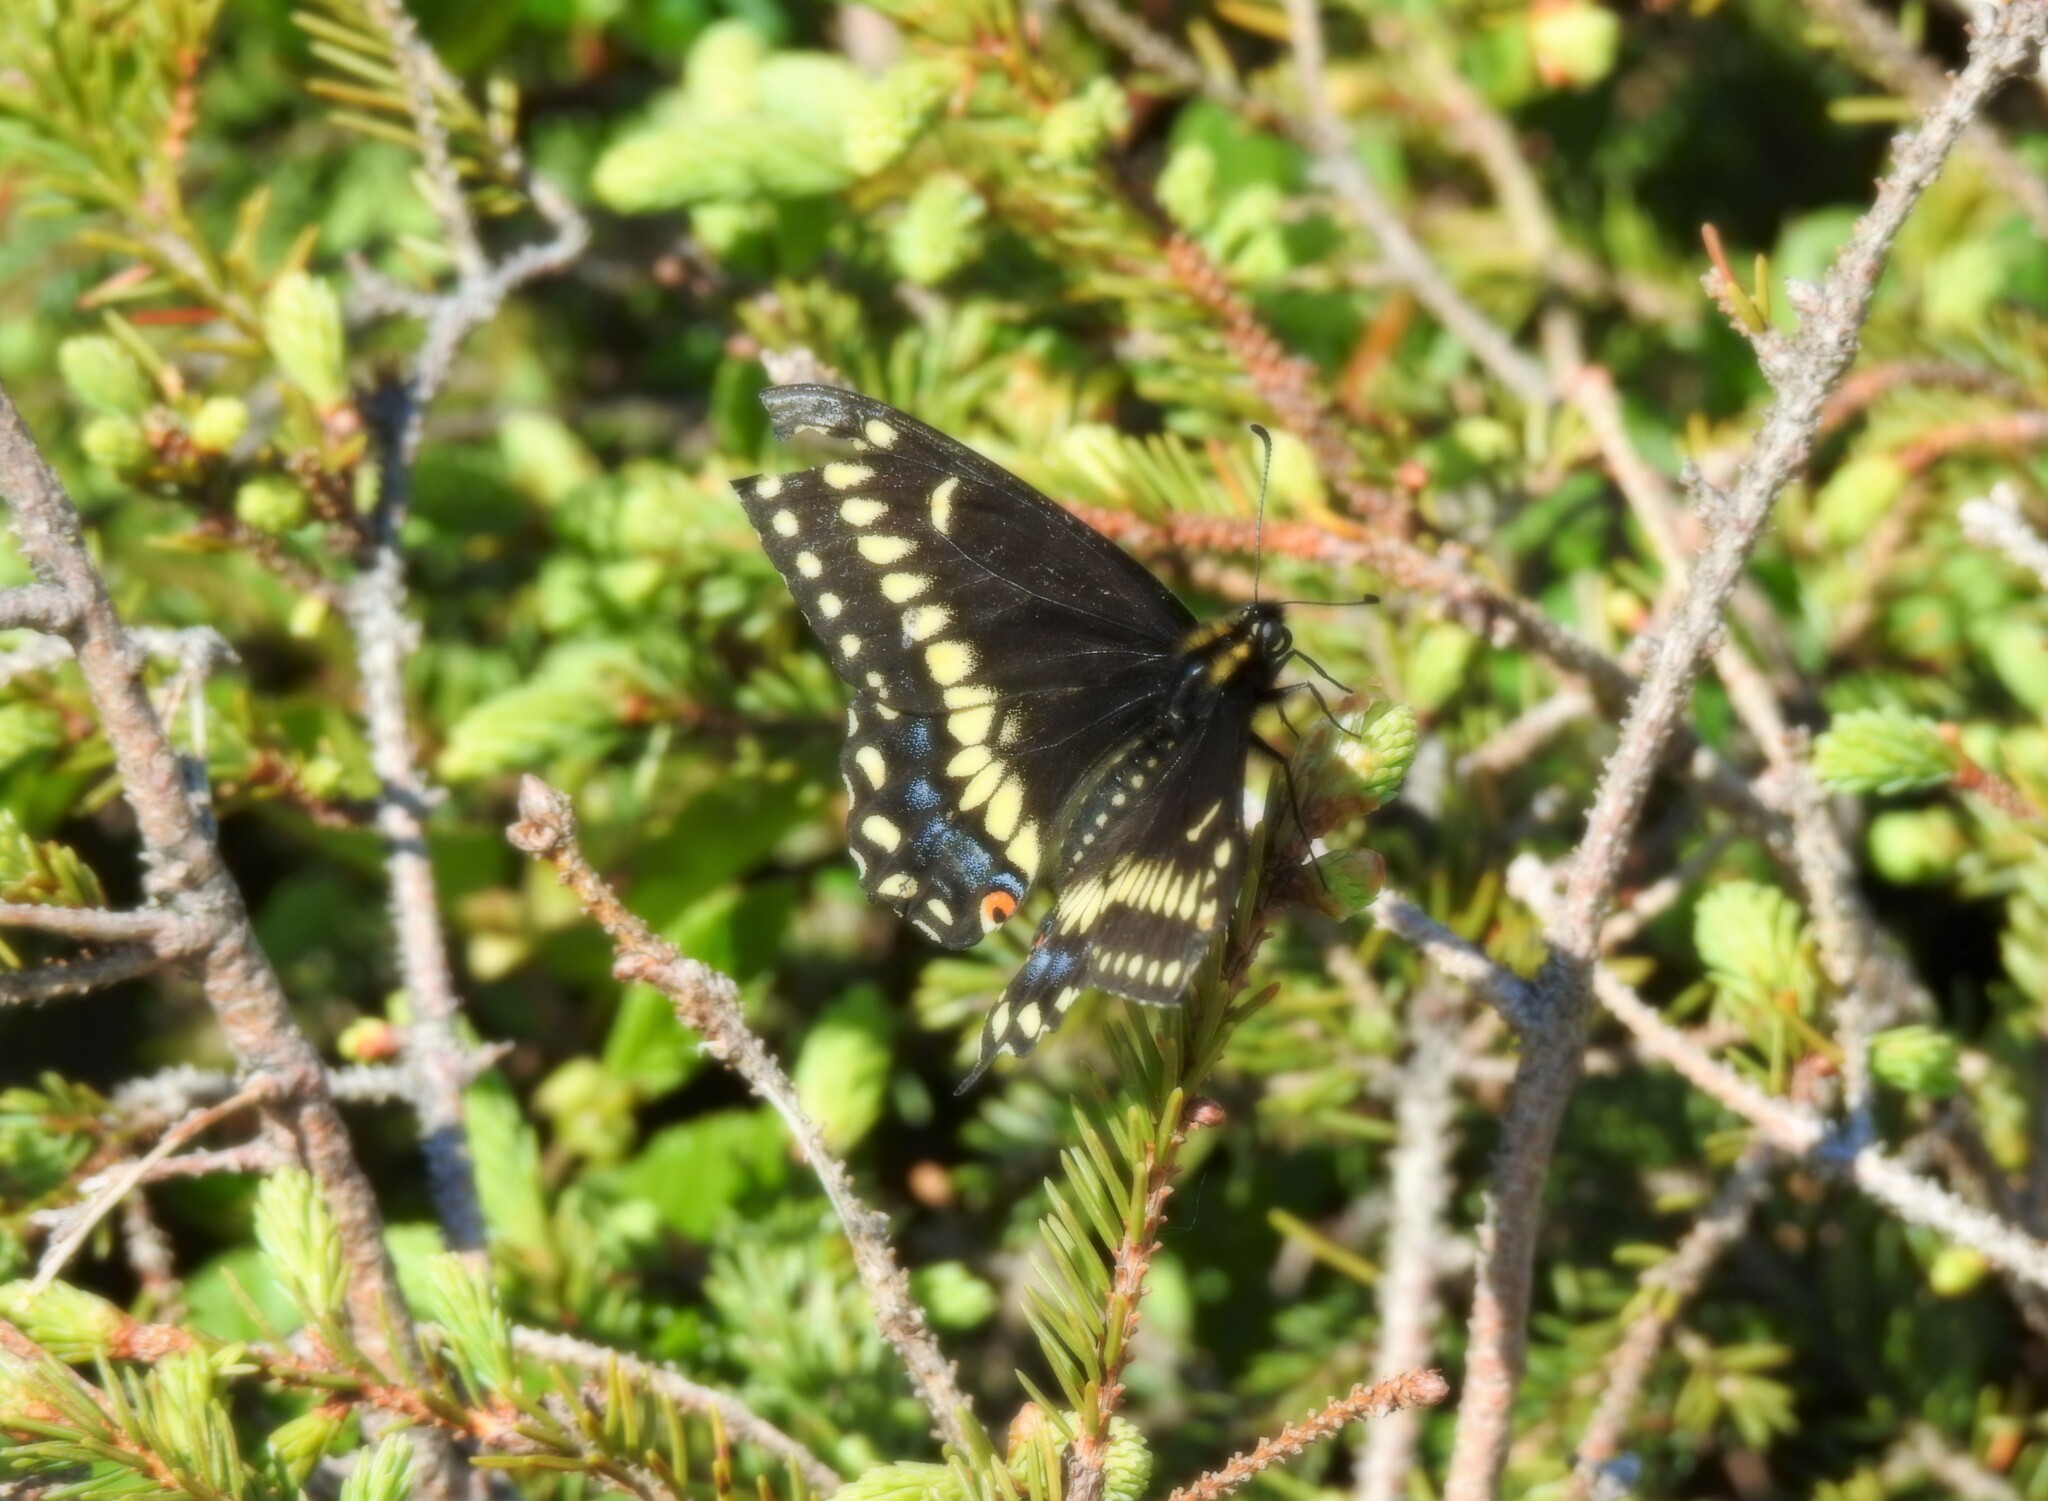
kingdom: Animalia
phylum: Arthropoda
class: Insecta
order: Lepidoptera
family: Papilionidae
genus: Papilio
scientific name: Papilio brevicauda
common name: Short tailed swallowtail
